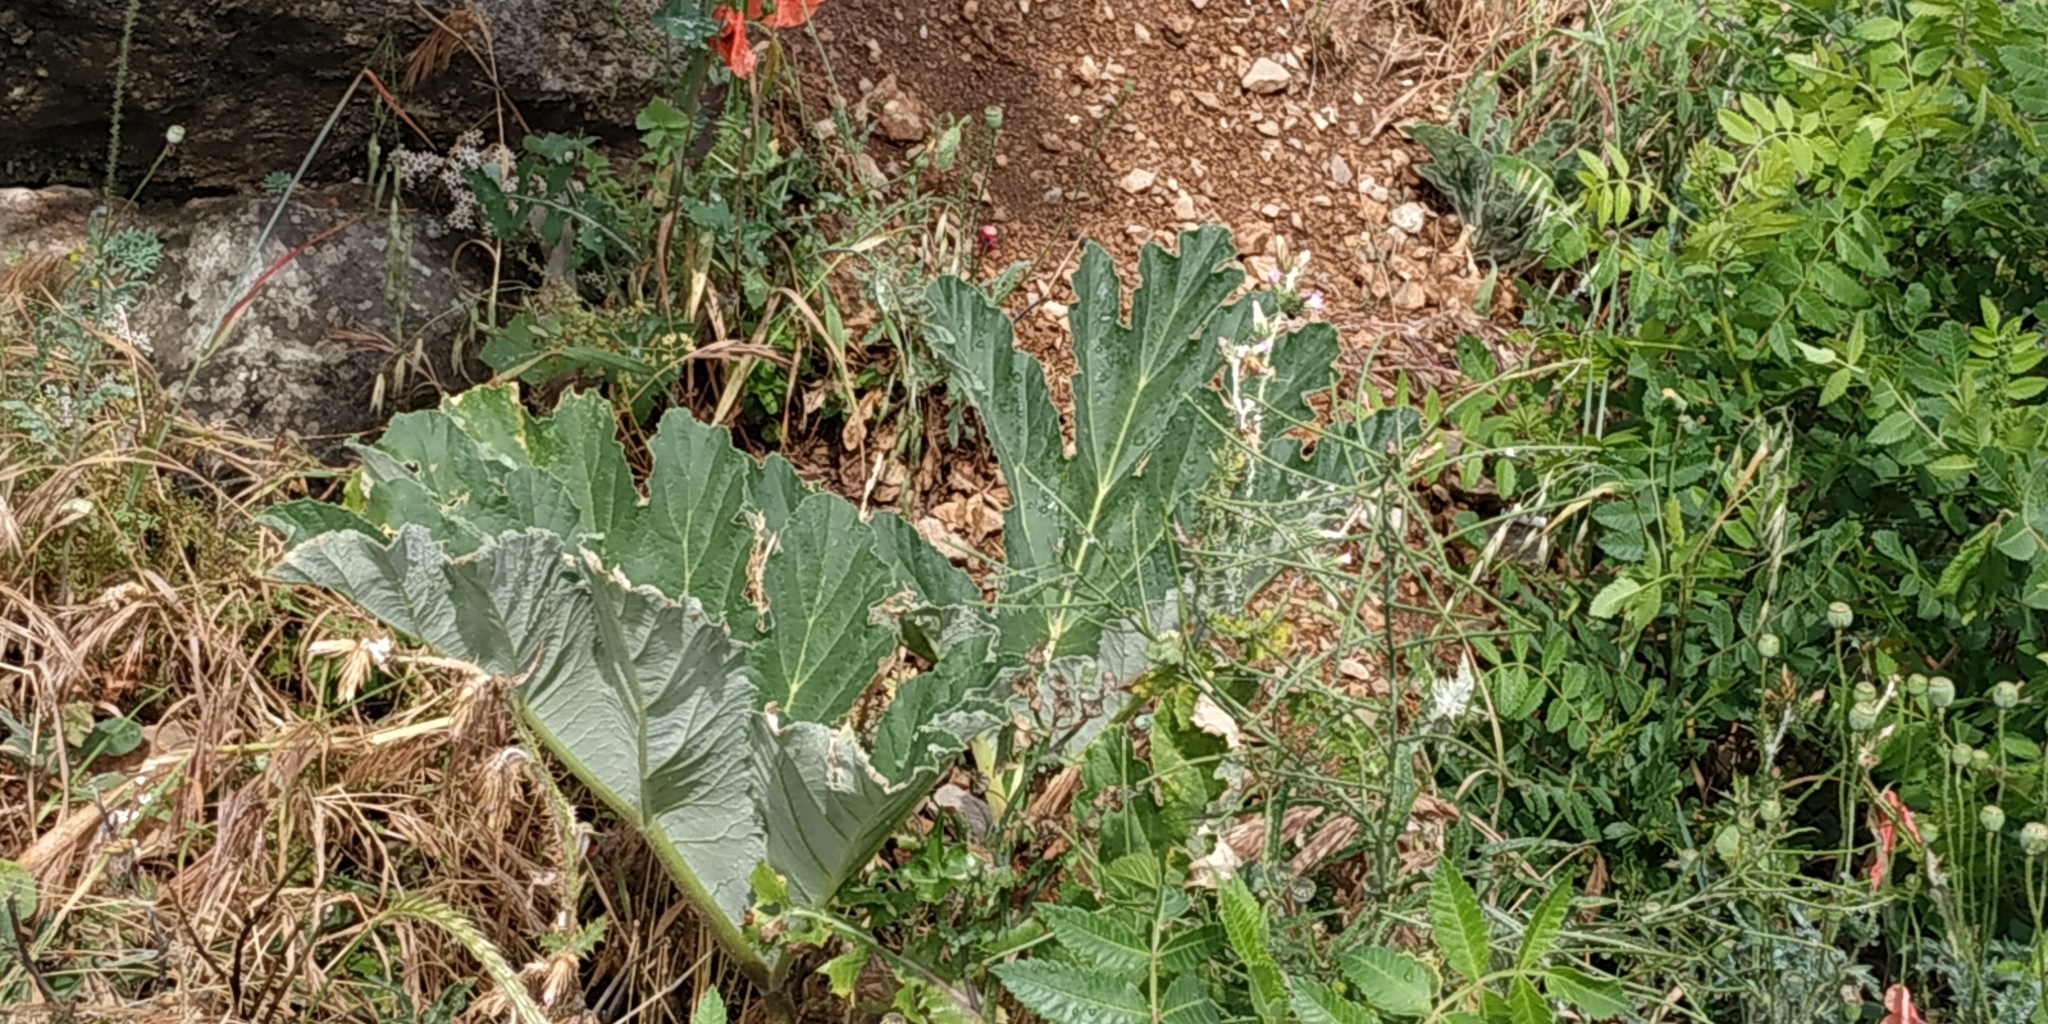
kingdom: Plantae
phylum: Tracheophyta
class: Magnoliopsida
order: Apiales
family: Apiaceae
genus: Heracleum
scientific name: Heracleum stevenii
